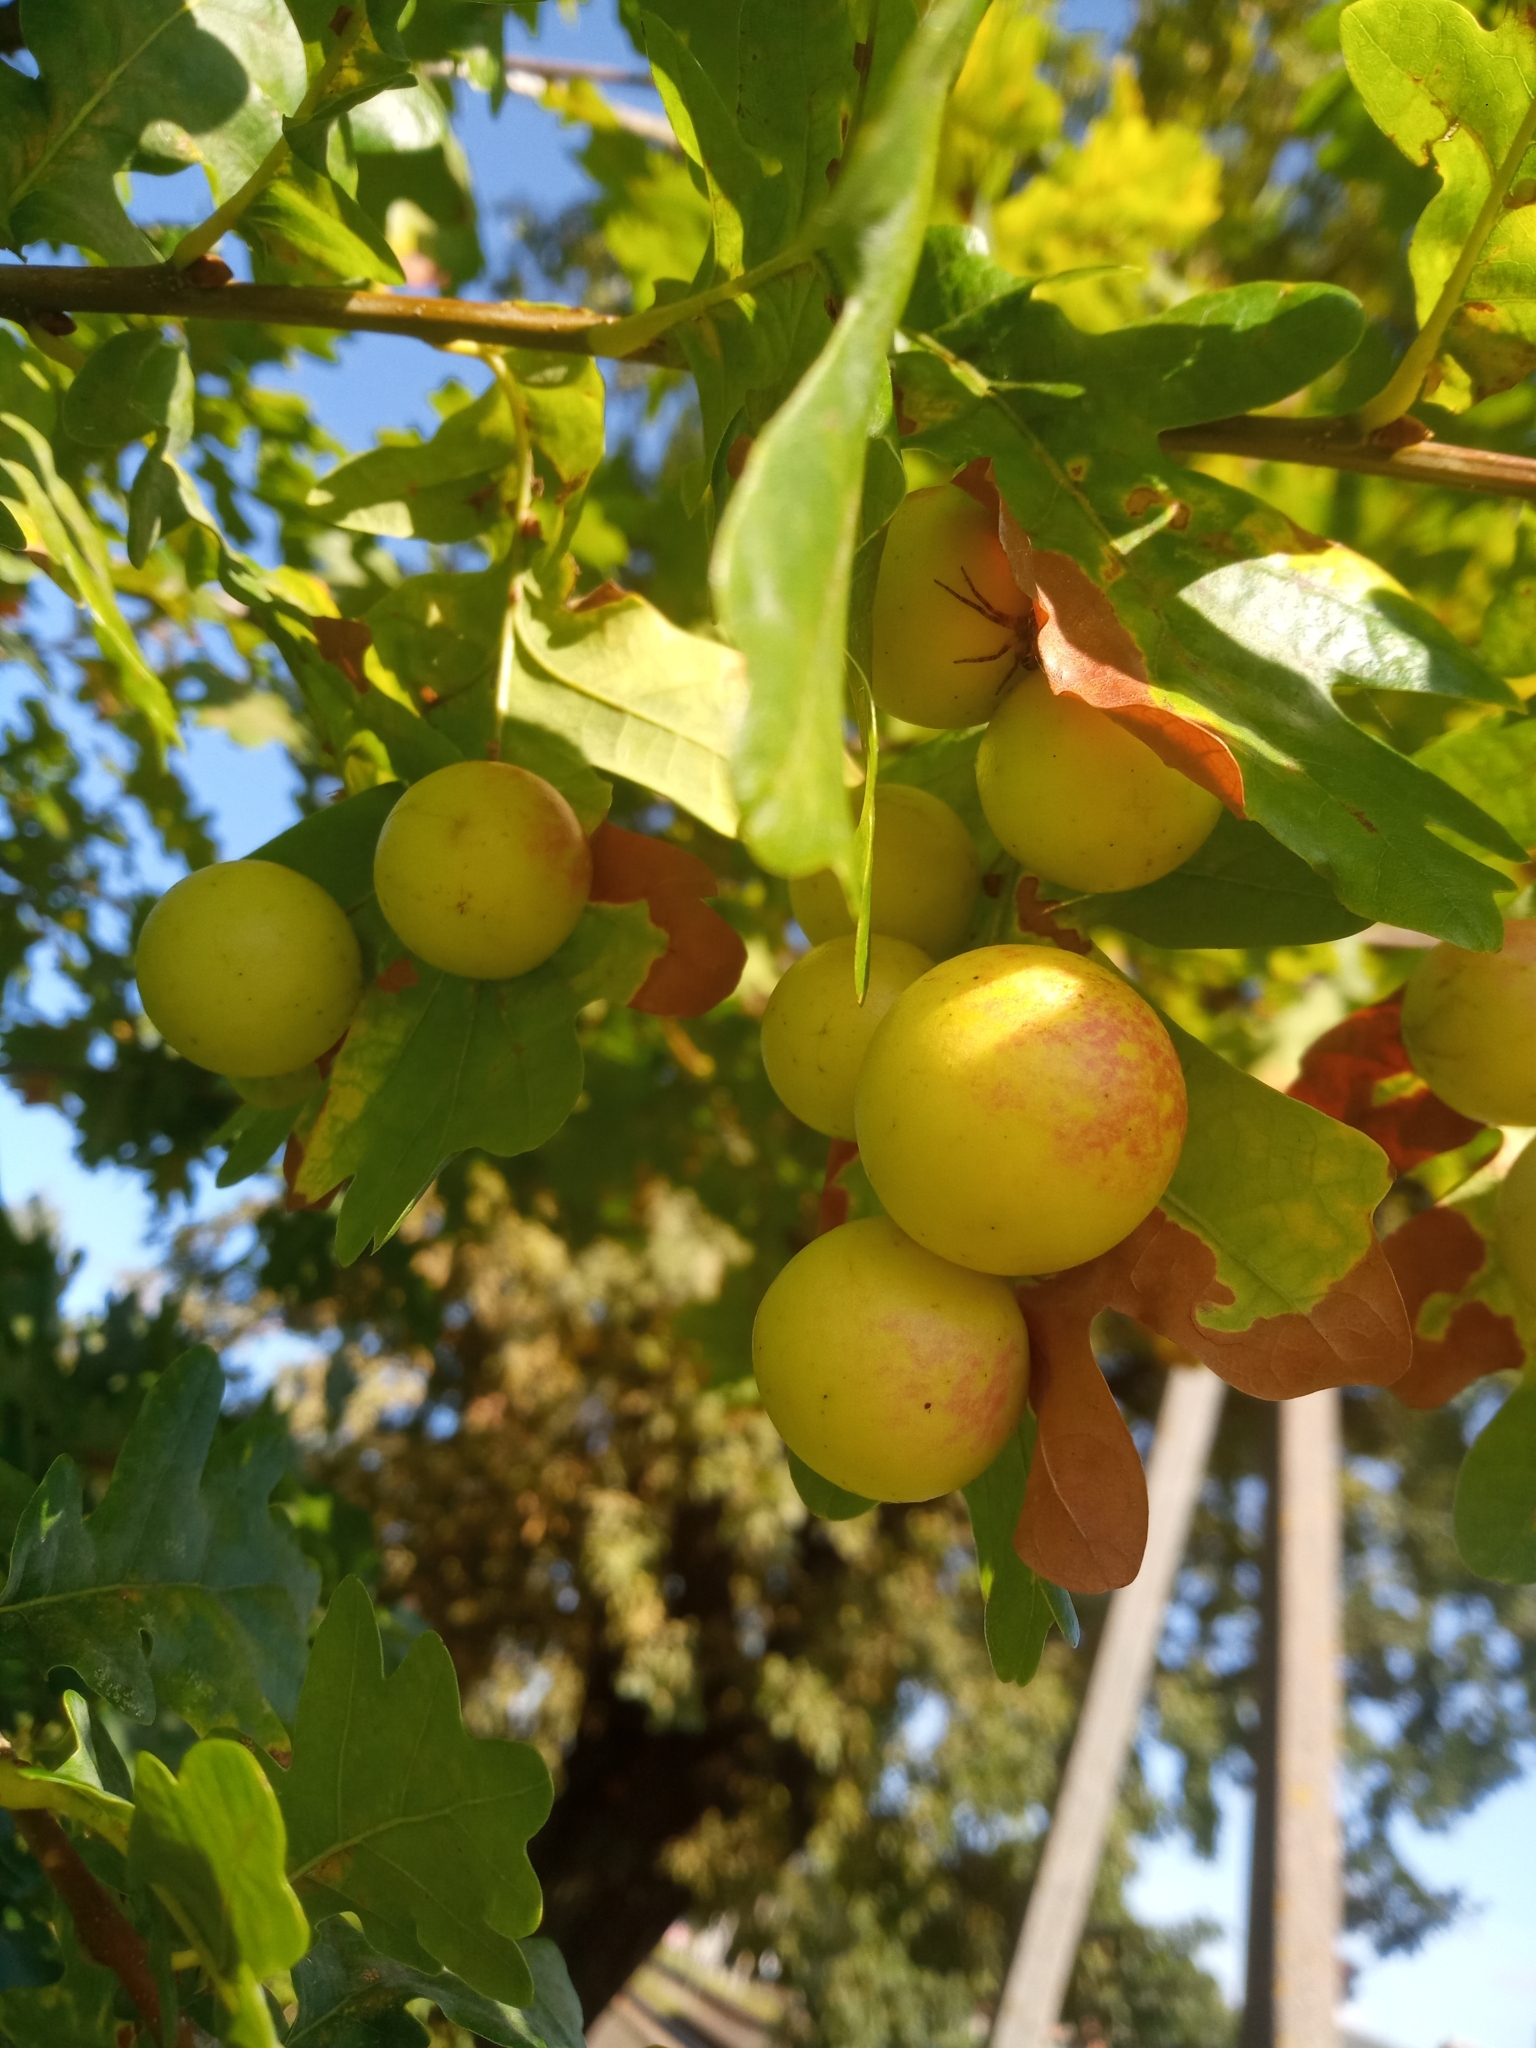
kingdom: Animalia
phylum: Arthropoda
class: Insecta
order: Hymenoptera
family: Cynipidae
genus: Cynips
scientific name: Cynips quercusfolii
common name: Cherry gall
